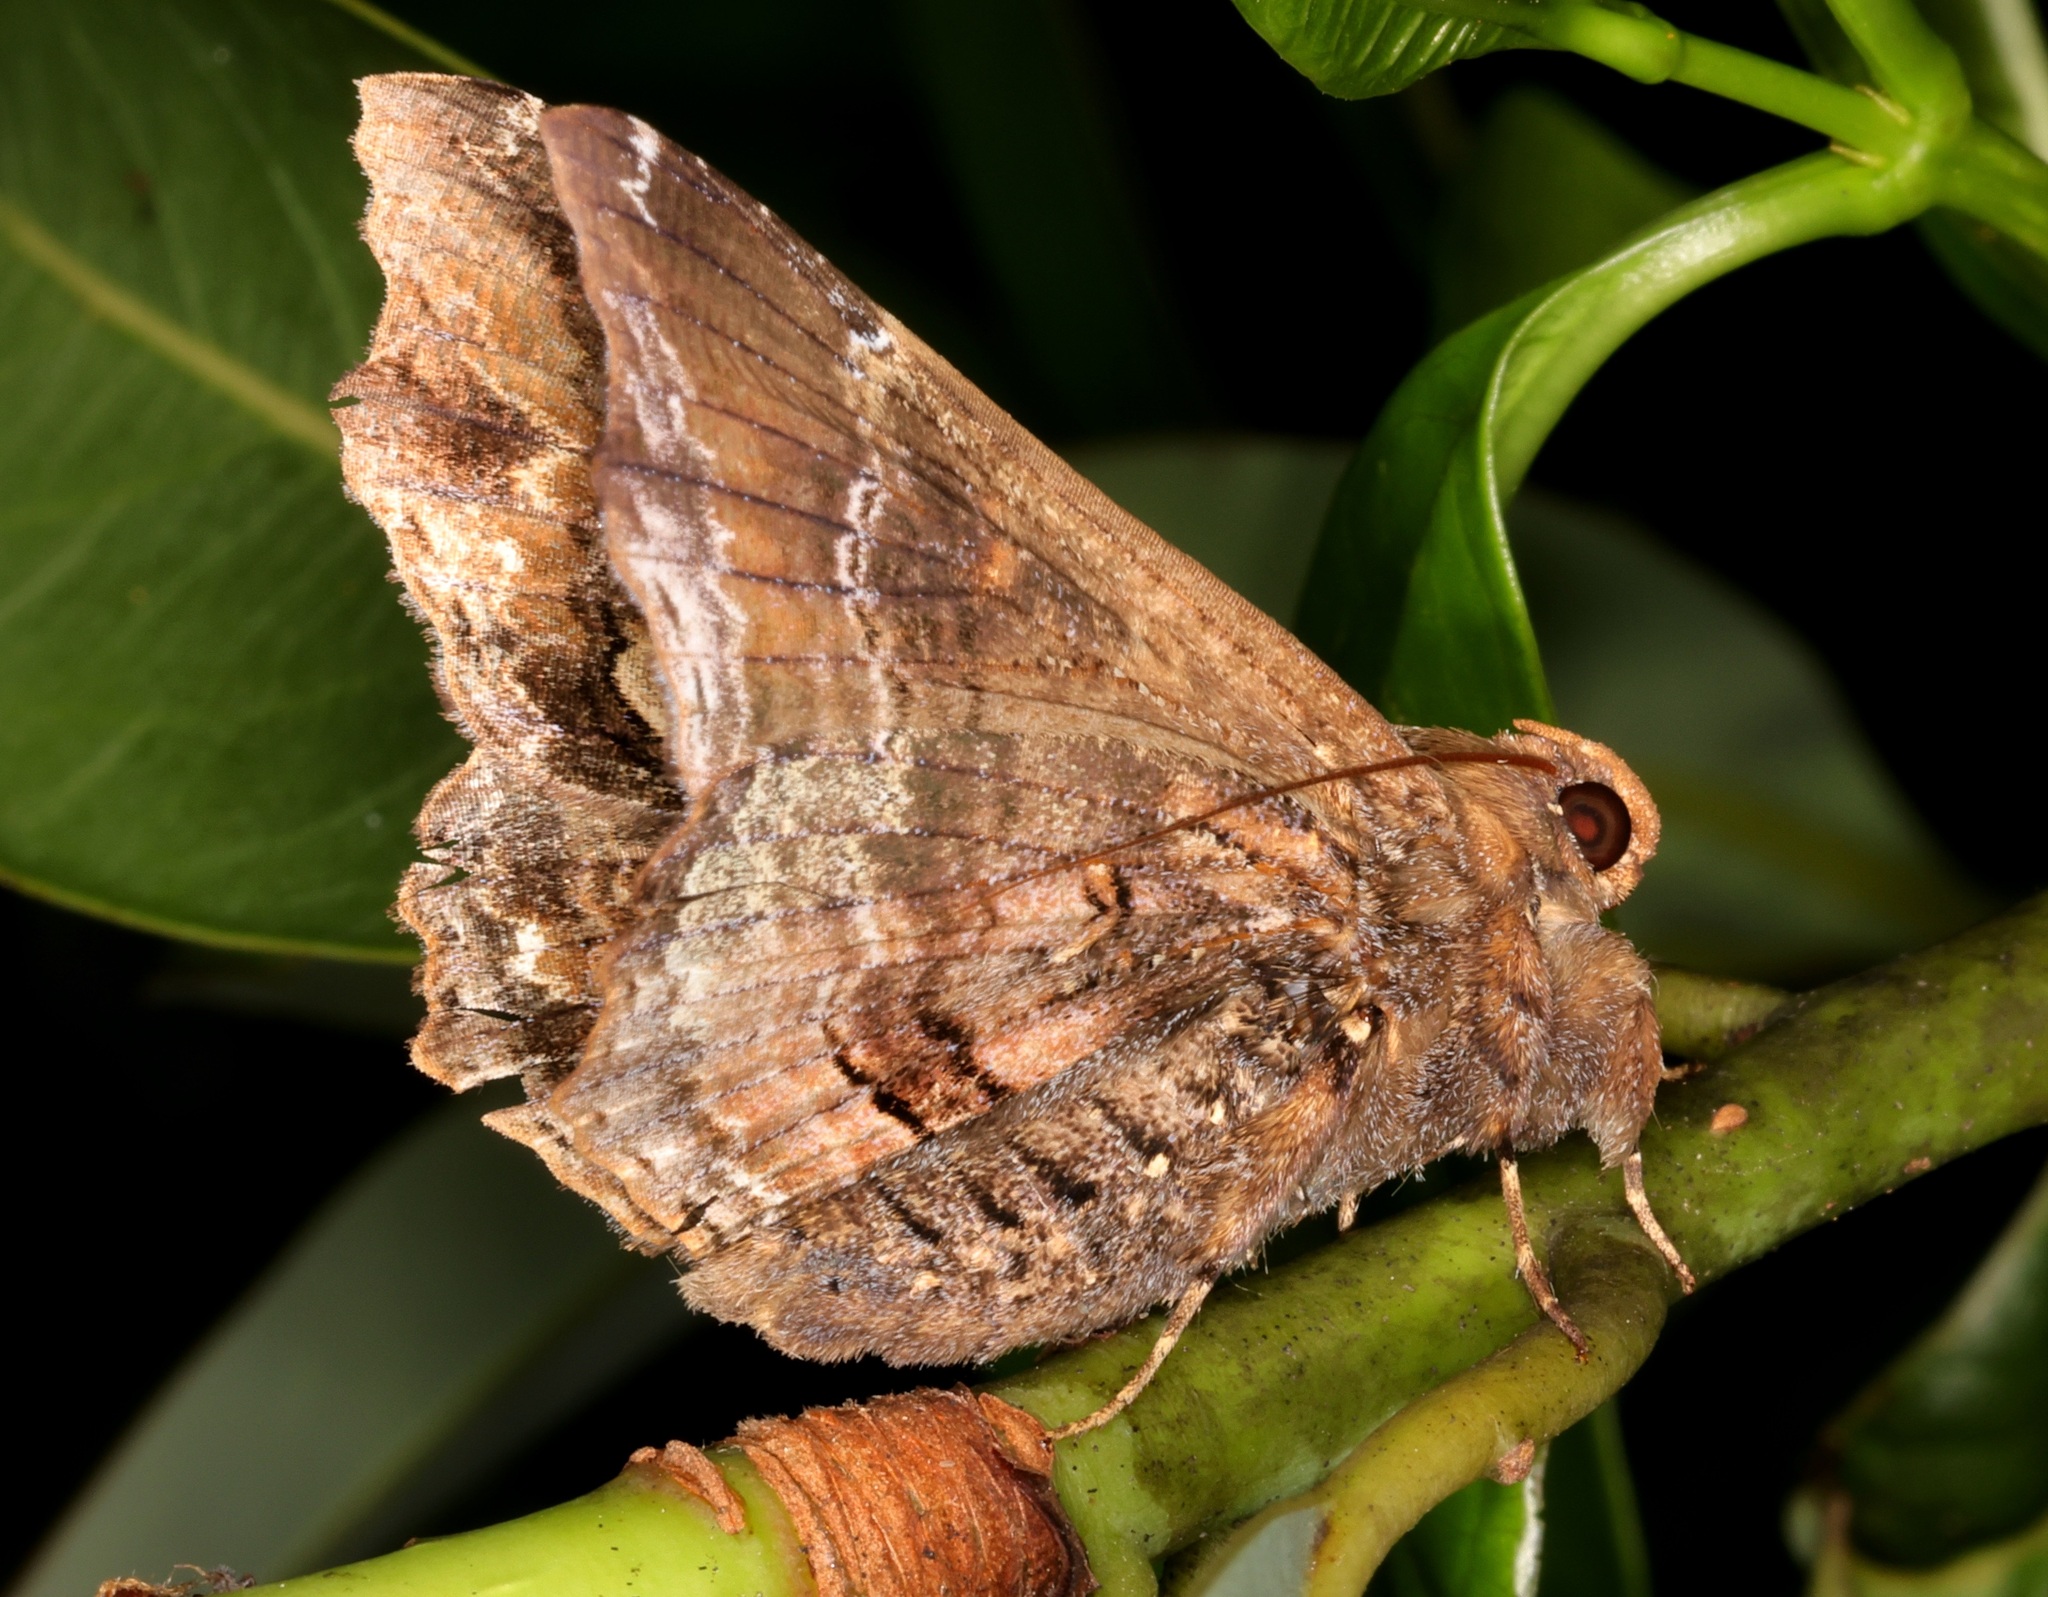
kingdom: Animalia
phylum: Arthropoda
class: Insecta
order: Lepidoptera
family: Erebidae
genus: Lacera
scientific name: Lacera procellosa
